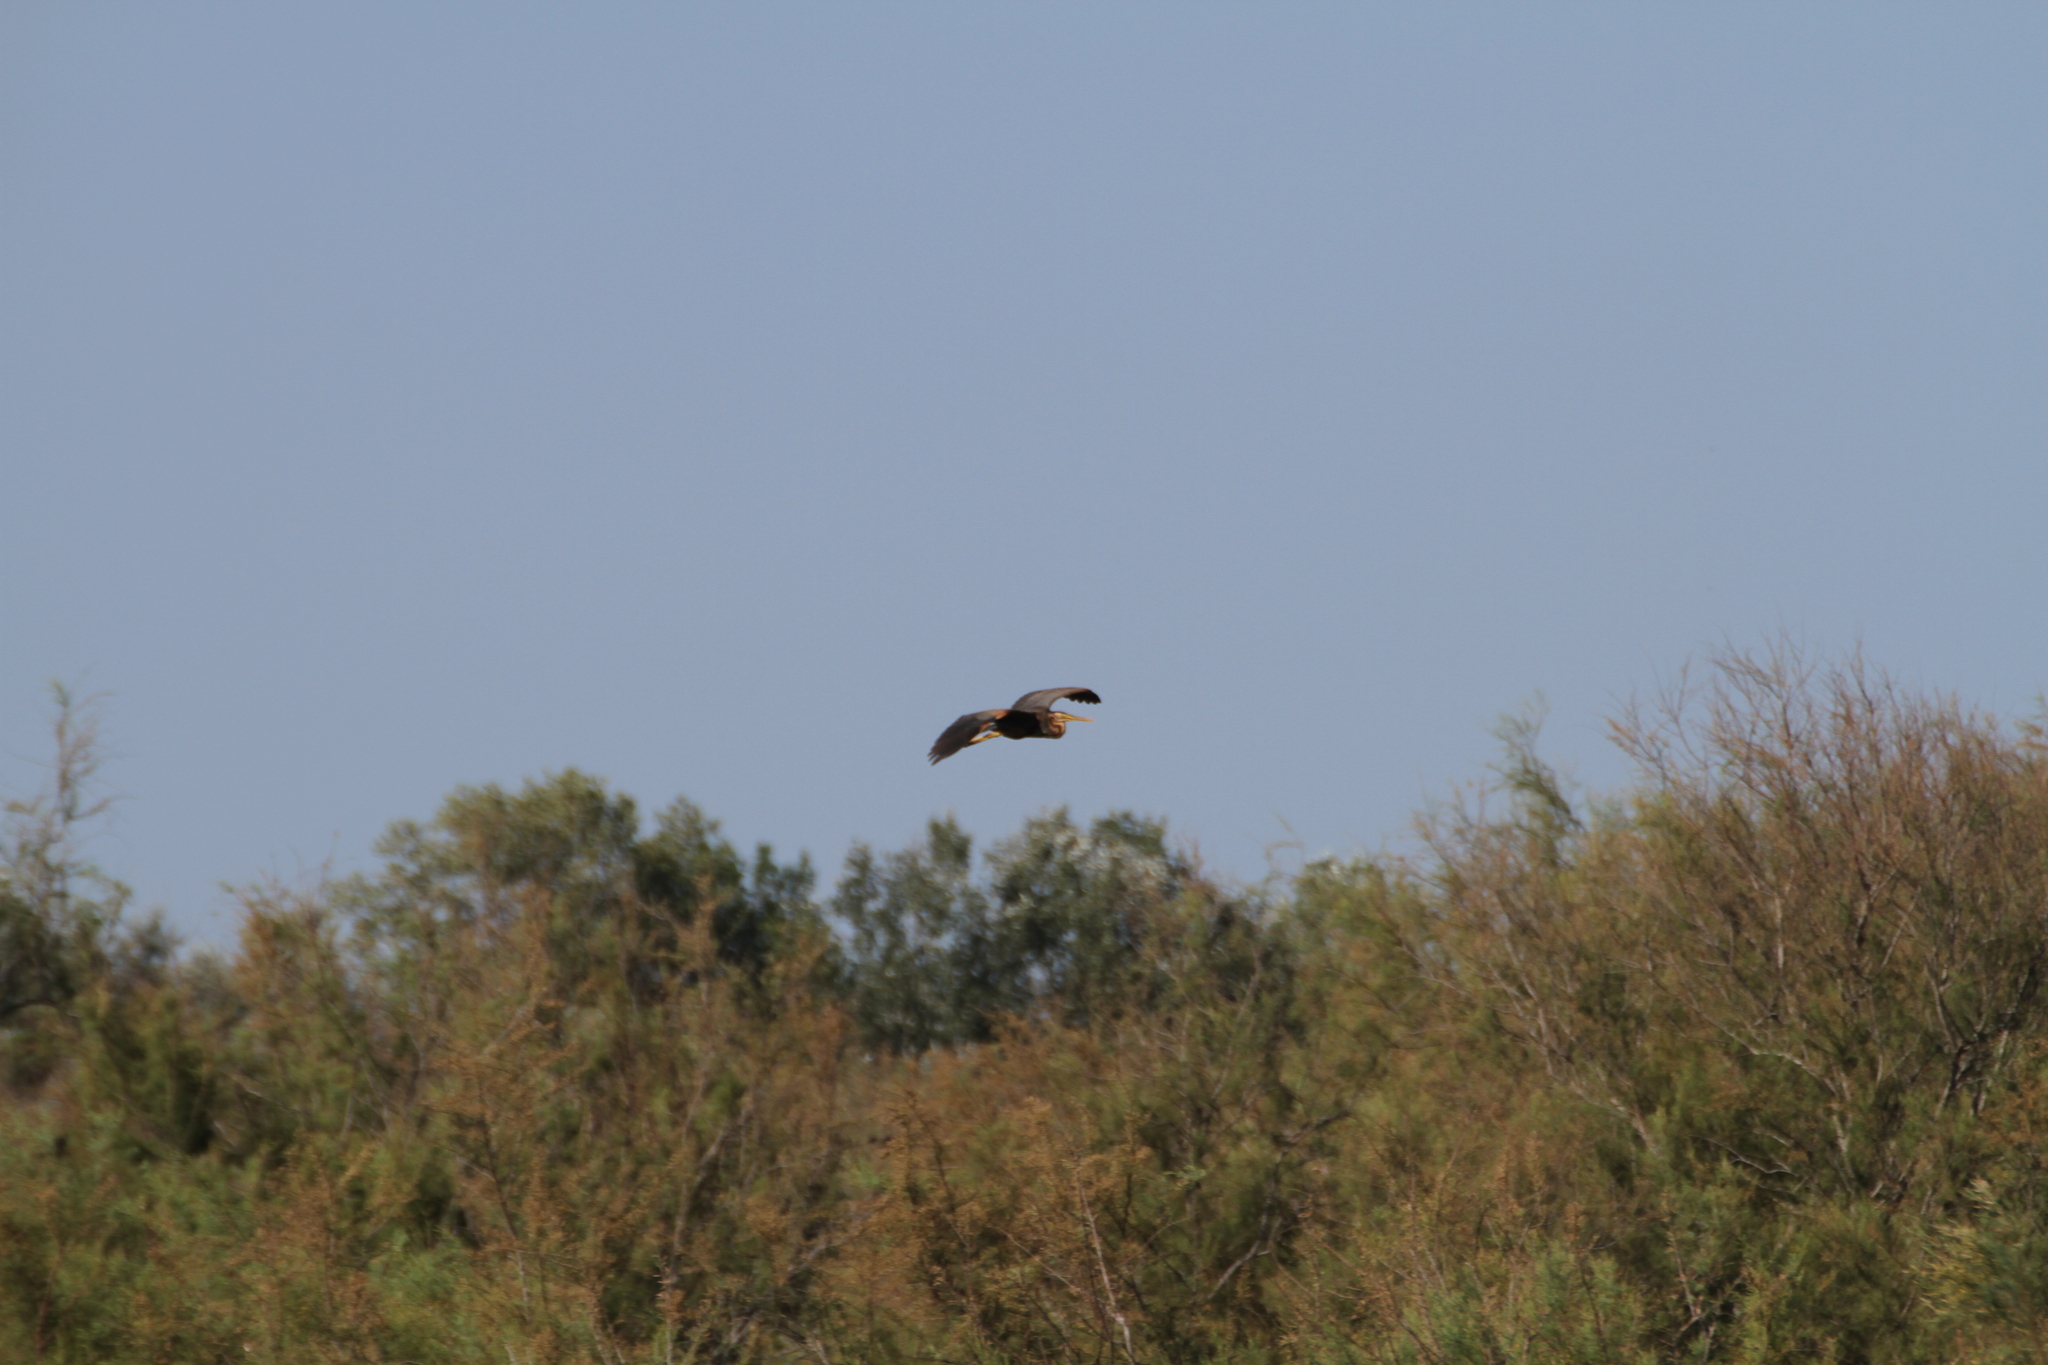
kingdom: Animalia
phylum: Chordata
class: Aves
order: Pelecaniformes
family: Ardeidae
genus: Ardea
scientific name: Ardea purpurea
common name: Purple heron
